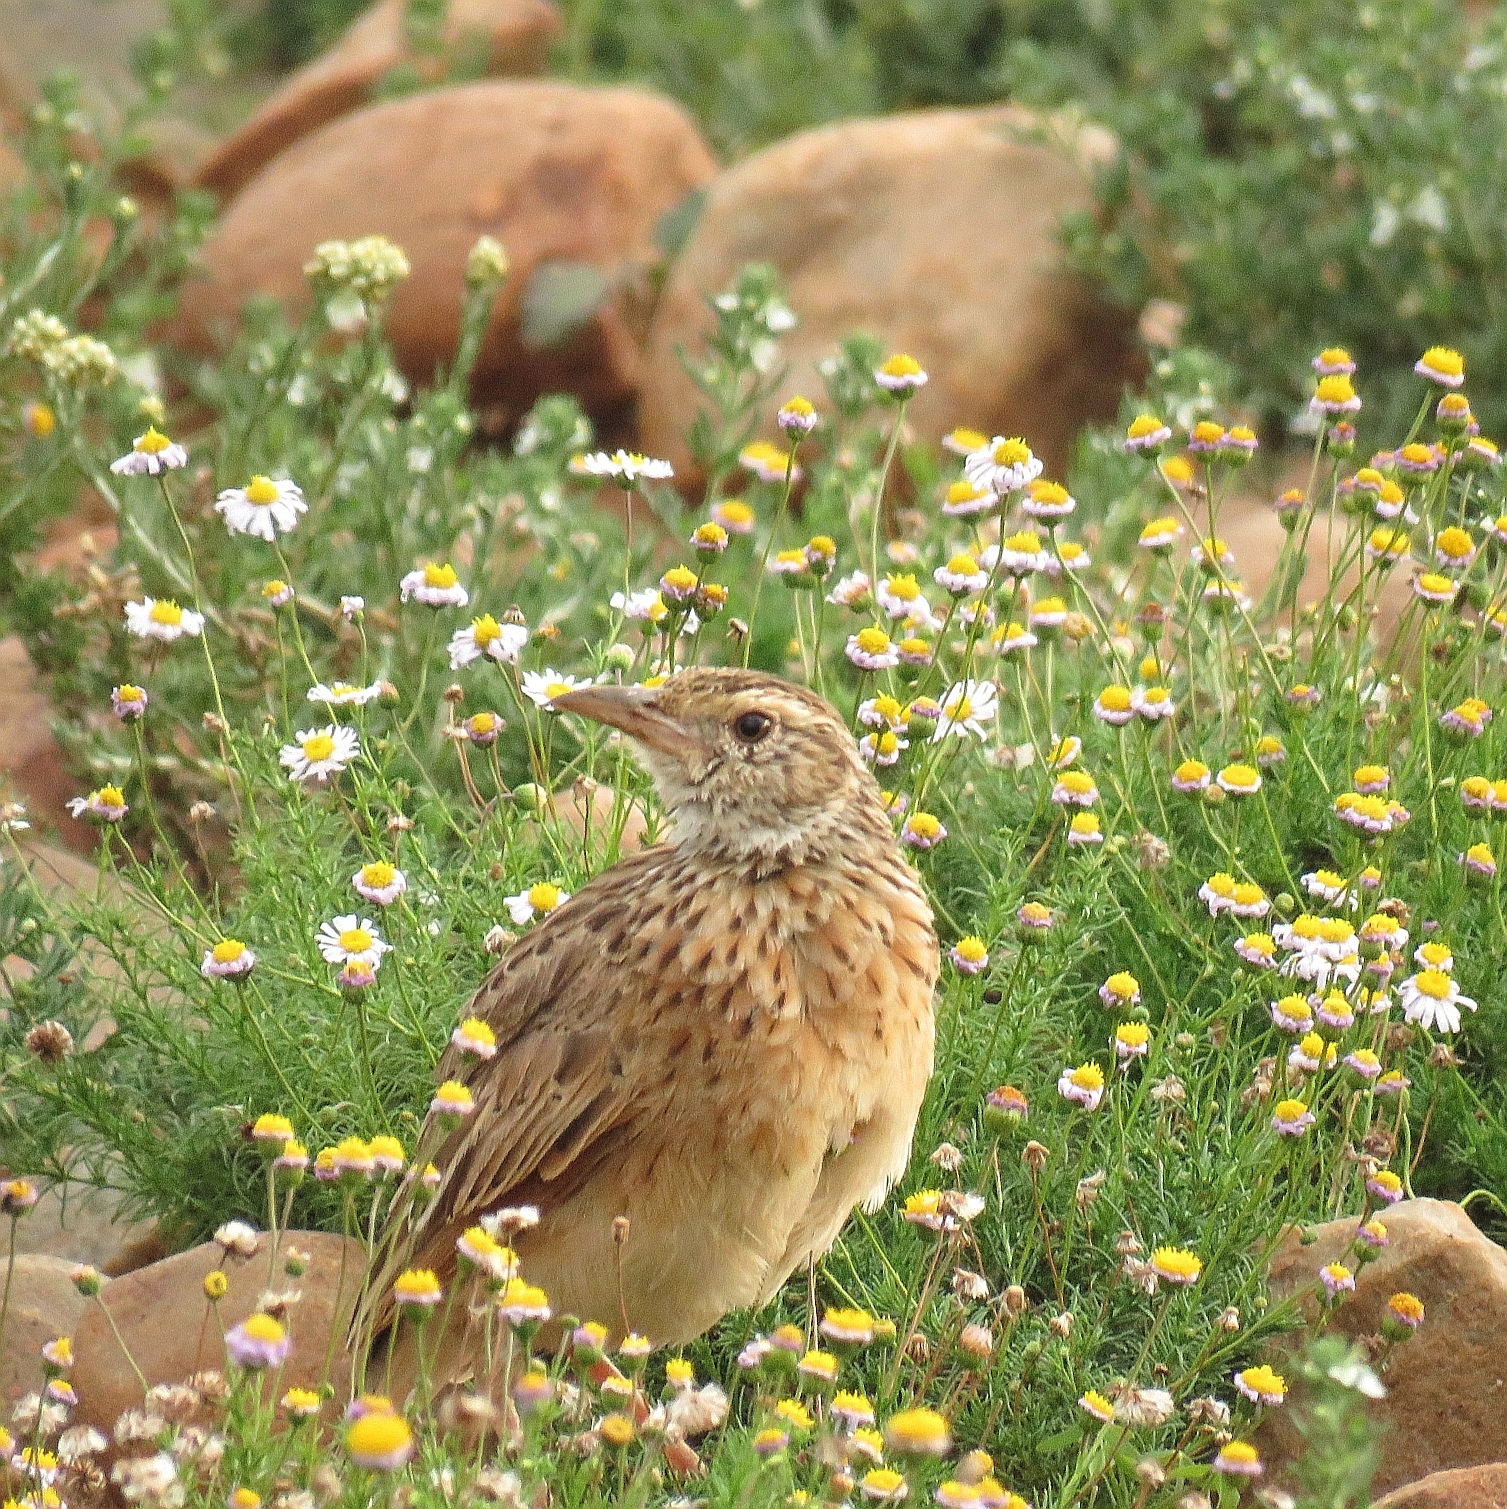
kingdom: Animalia
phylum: Chordata
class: Aves
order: Passeriformes
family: Alaudidae
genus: Mirafra
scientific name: Mirafra africana
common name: Rufous-naped lark
